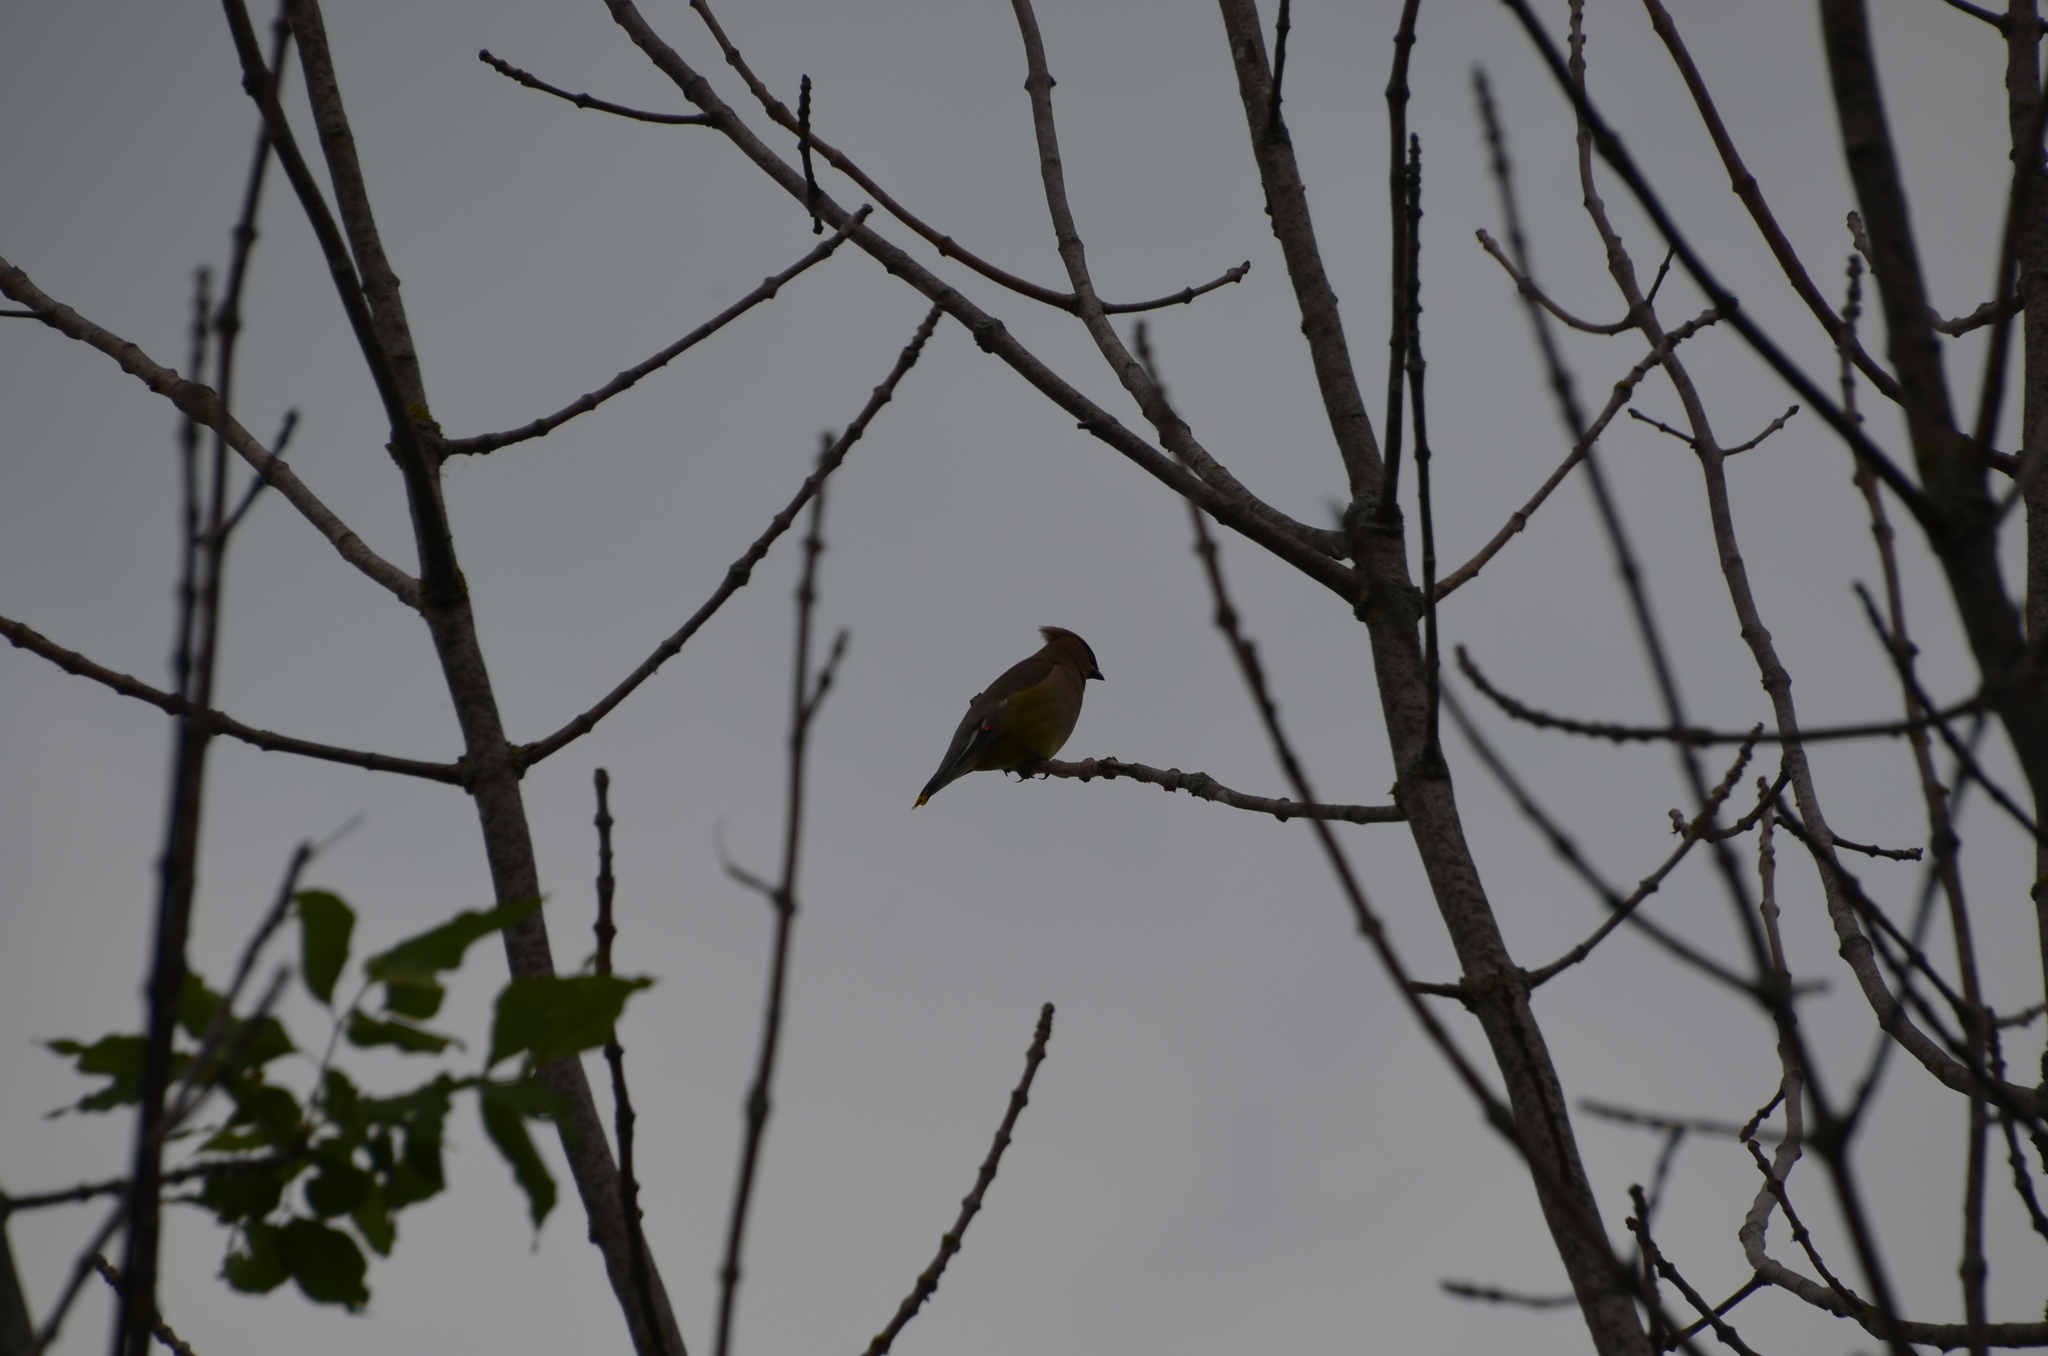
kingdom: Animalia
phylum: Chordata
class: Aves
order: Passeriformes
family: Bombycillidae
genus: Bombycilla
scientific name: Bombycilla cedrorum
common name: Cedar waxwing
